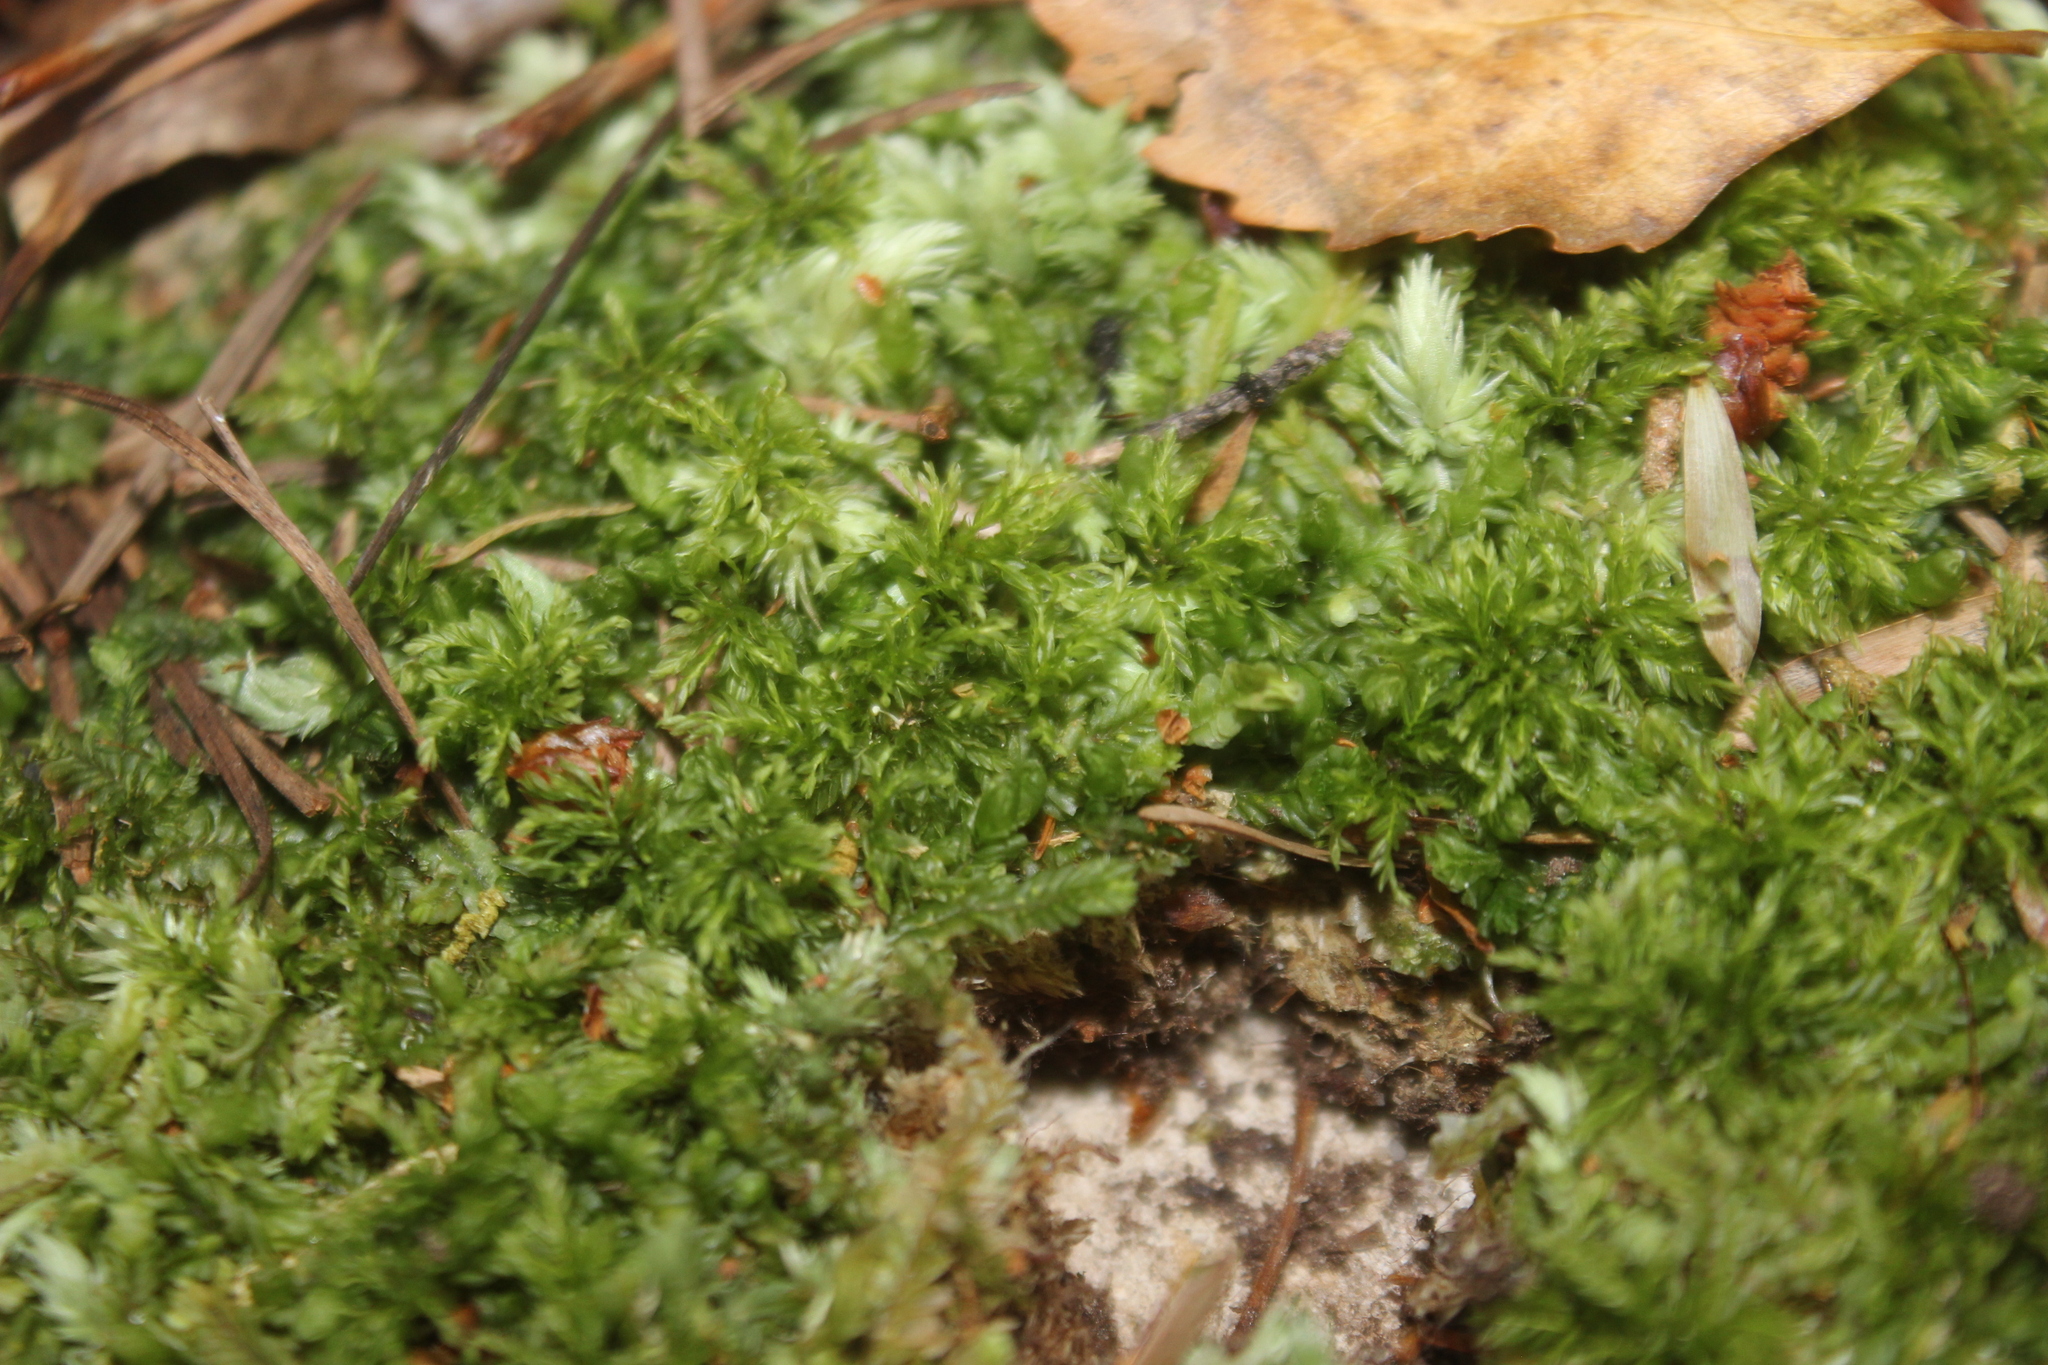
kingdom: Plantae
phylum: Bryophyta
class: Bryopsida
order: Aulacomniales
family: Aulacomniaceae
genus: Hymenodontopsis
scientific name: Hymenodontopsis bifaria
